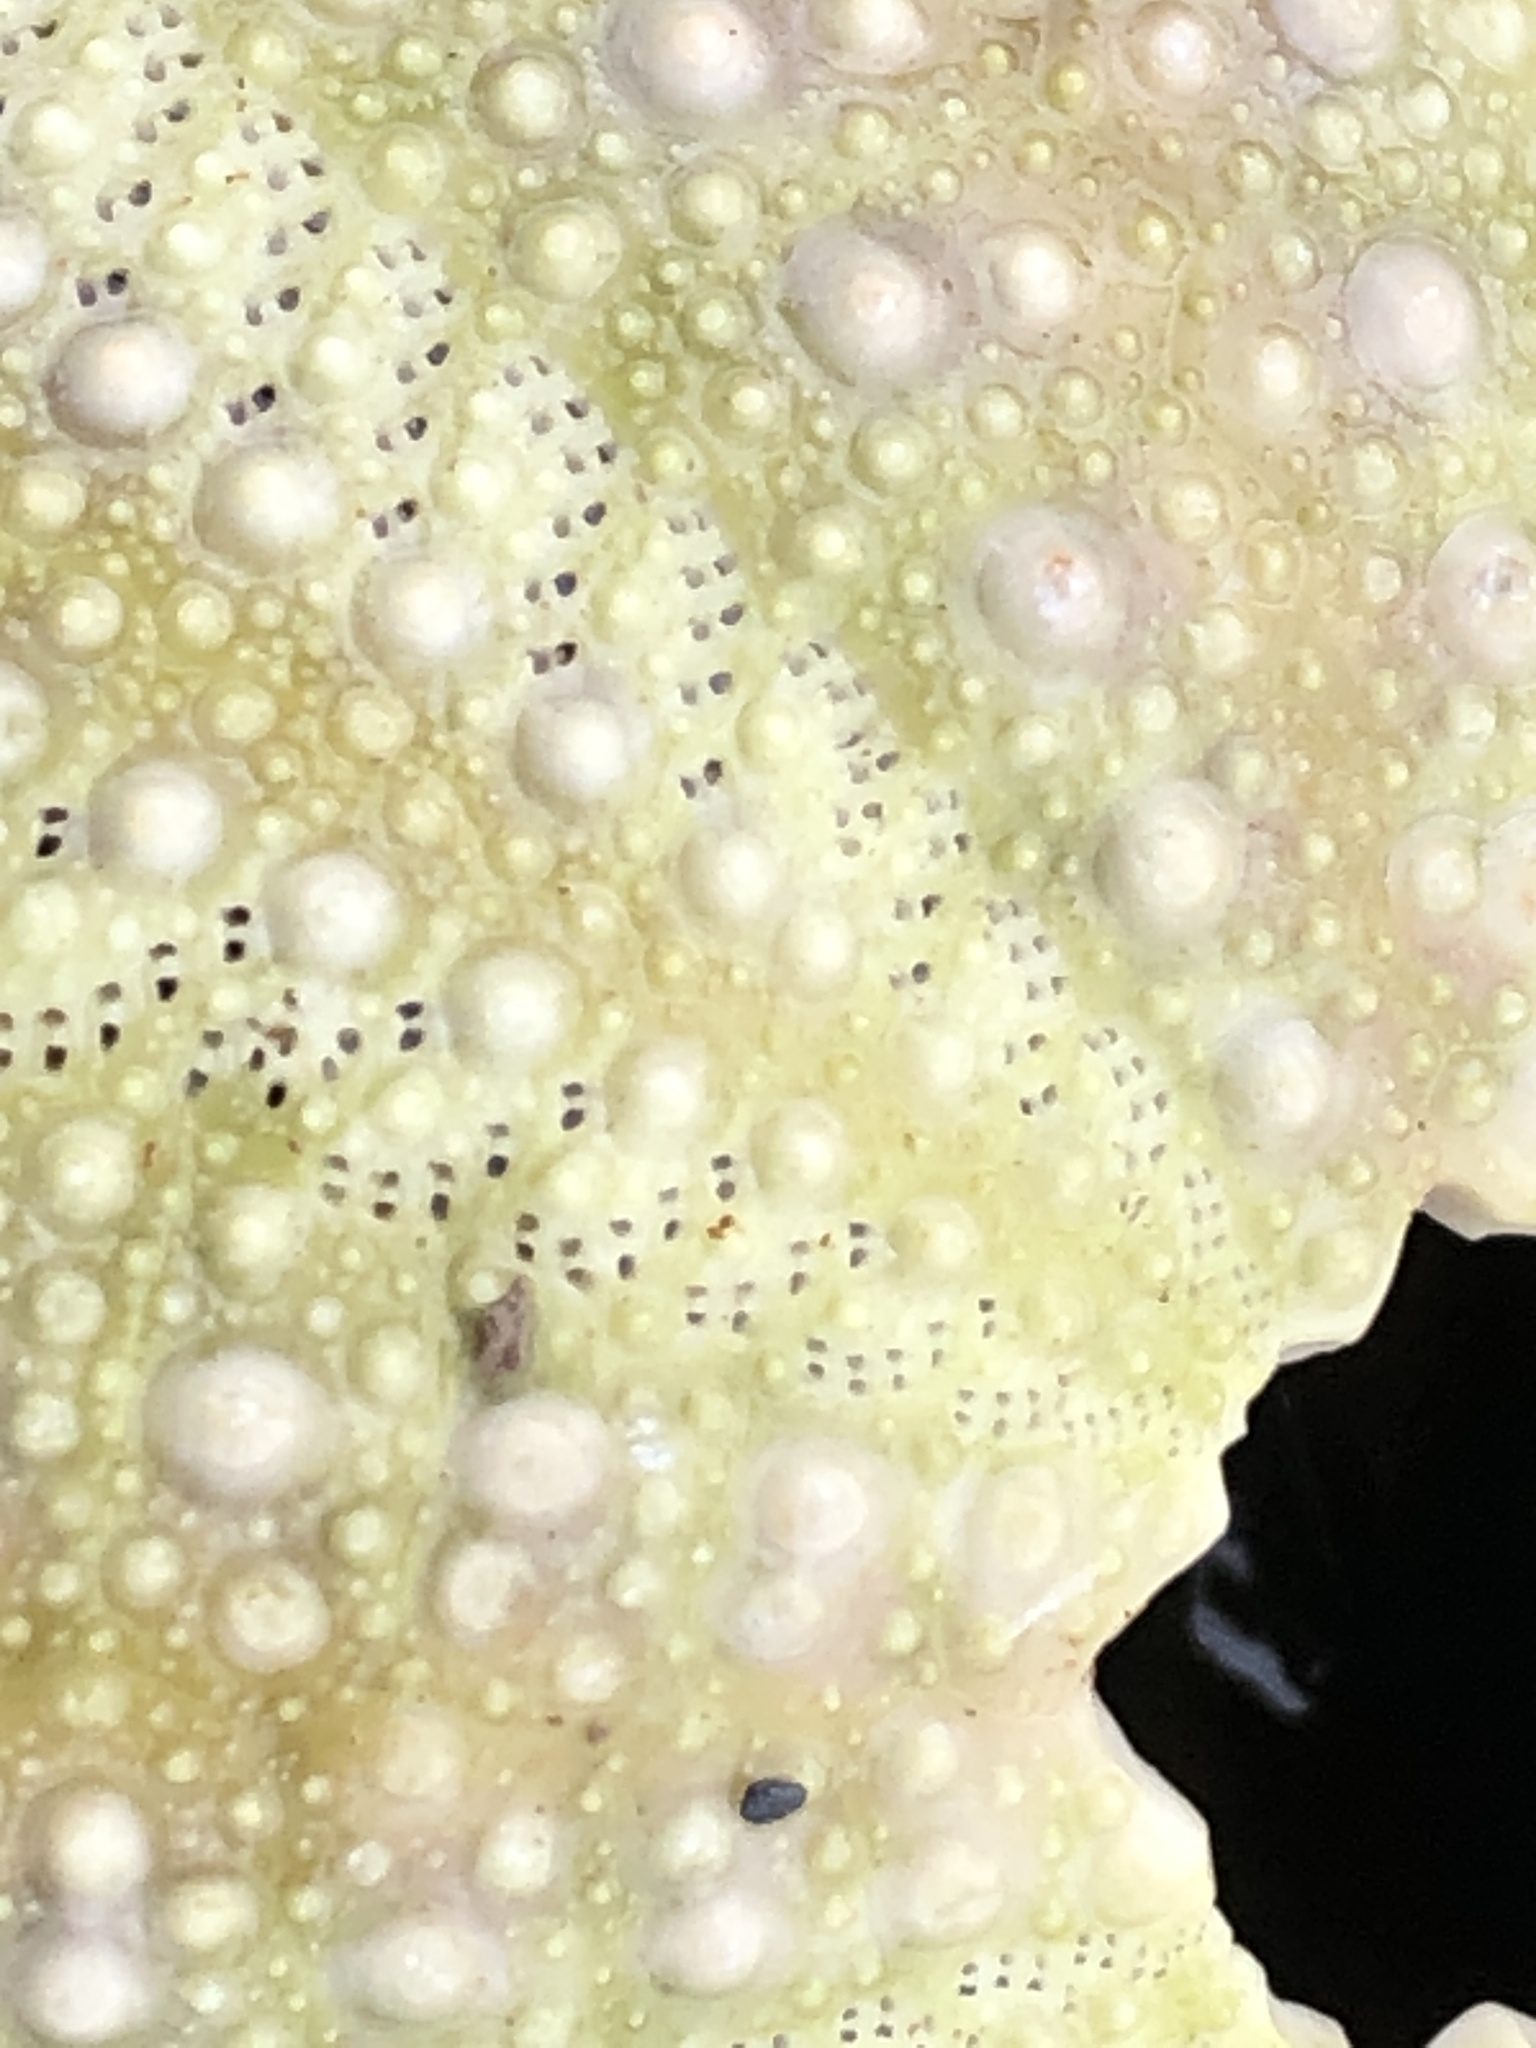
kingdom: Animalia
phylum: Echinodermata
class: Echinoidea
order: Camarodonta
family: Strongylocentrotidae
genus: Strongylocentrotus
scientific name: Strongylocentrotus droebachiensis
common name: Northern sea urchin
